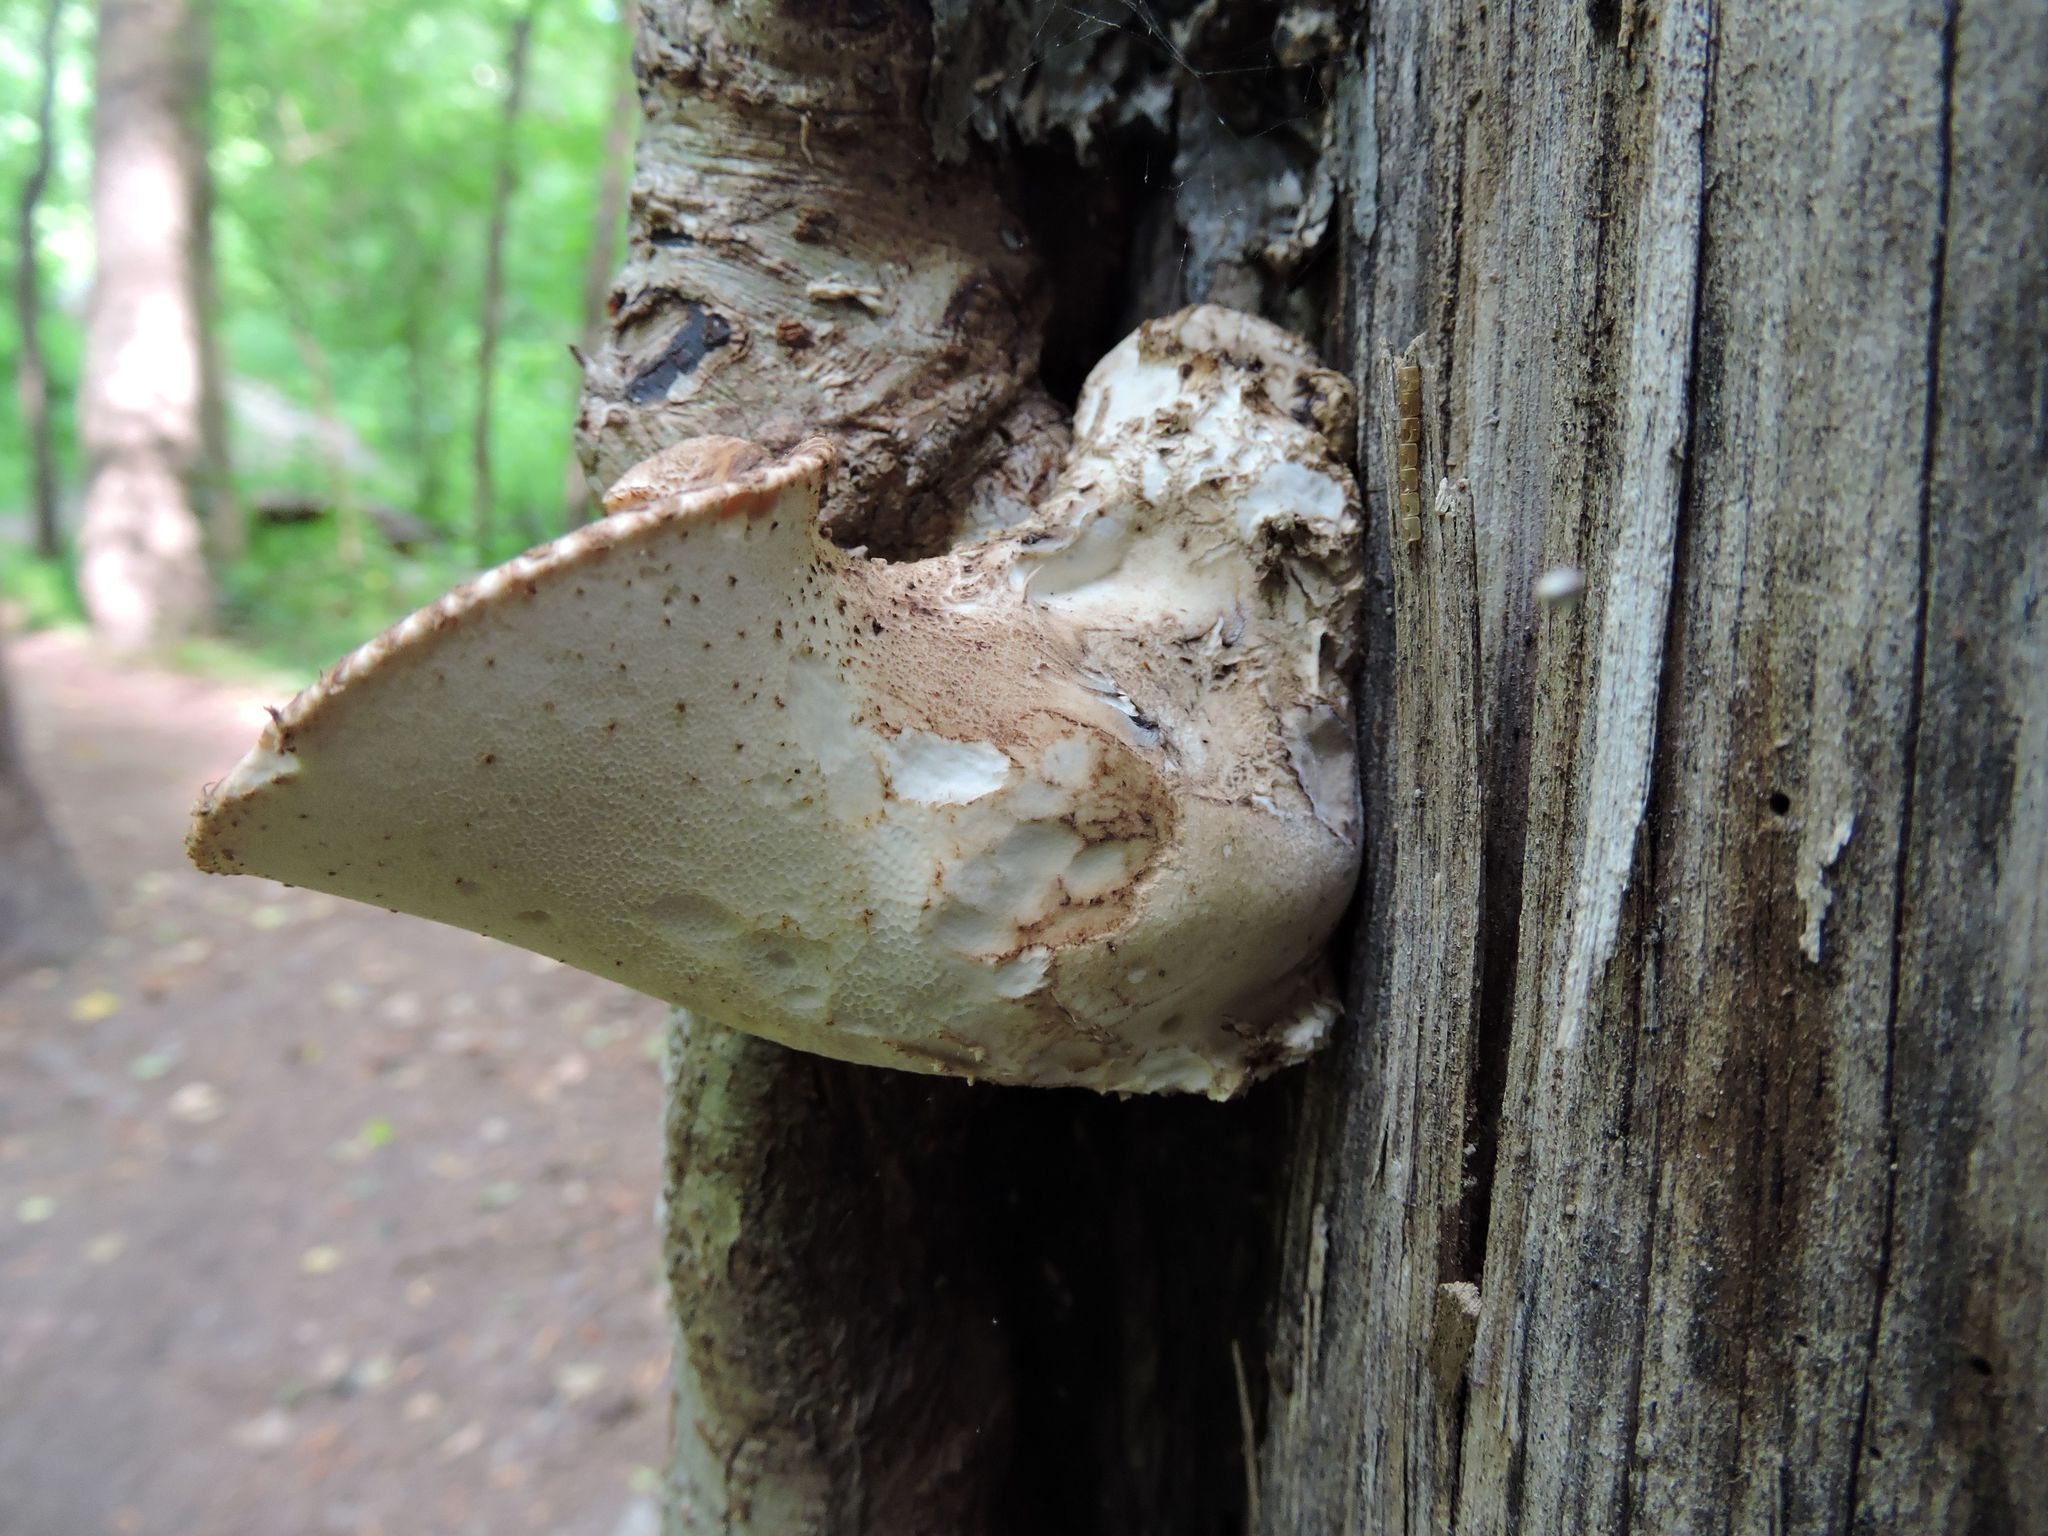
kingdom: Fungi
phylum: Basidiomycota
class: Agaricomycetes
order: Polyporales
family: Polyporaceae
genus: Cerioporus
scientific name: Cerioporus squamosus
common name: Dryad's saddle
